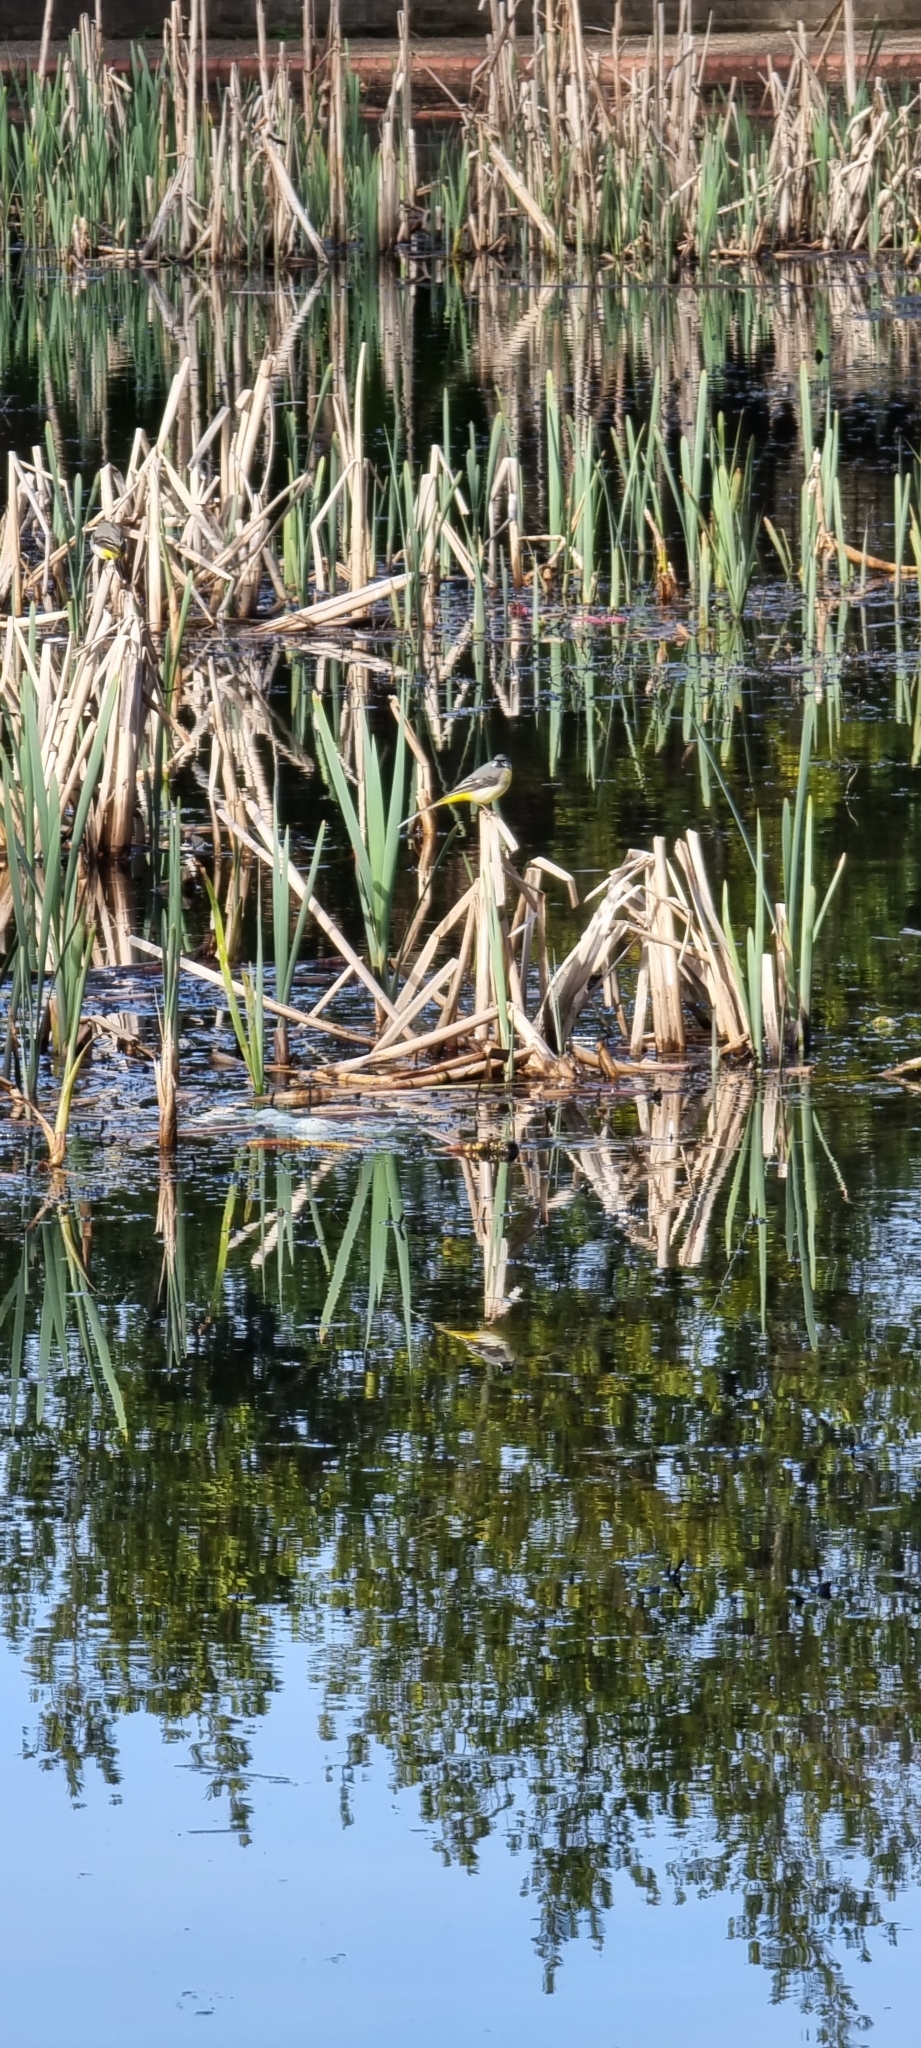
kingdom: Animalia
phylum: Chordata
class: Aves
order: Passeriformes
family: Motacillidae
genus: Motacilla
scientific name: Motacilla cinerea
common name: Grey wagtail
